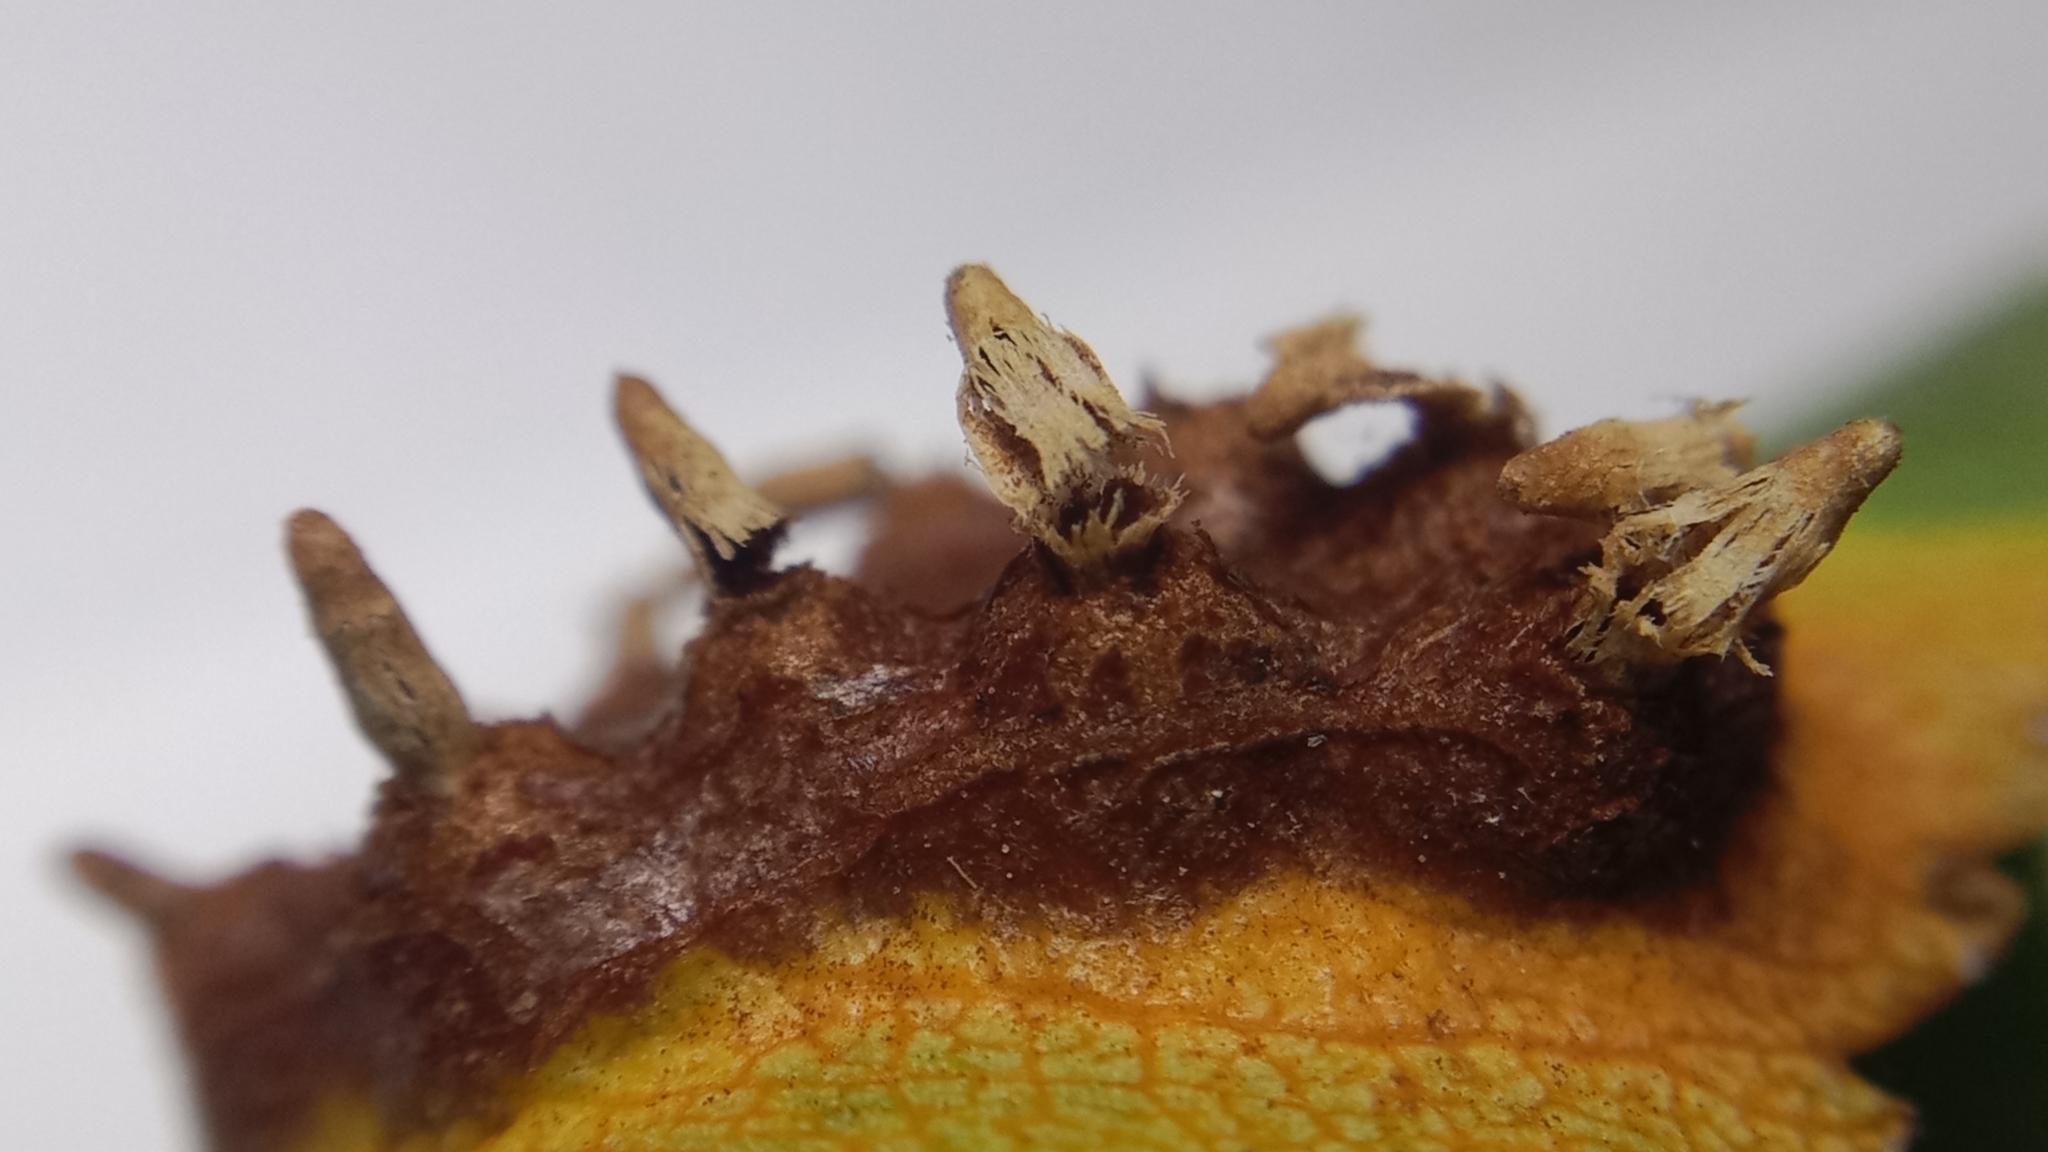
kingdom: Fungi
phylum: Basidiomycota
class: Pucciniomycetes
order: Pucciniales
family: Gymnosporangiaceae
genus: Gymnosporangium
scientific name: Gymnosporangium sabinae
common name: Pear trellis rust fungus
